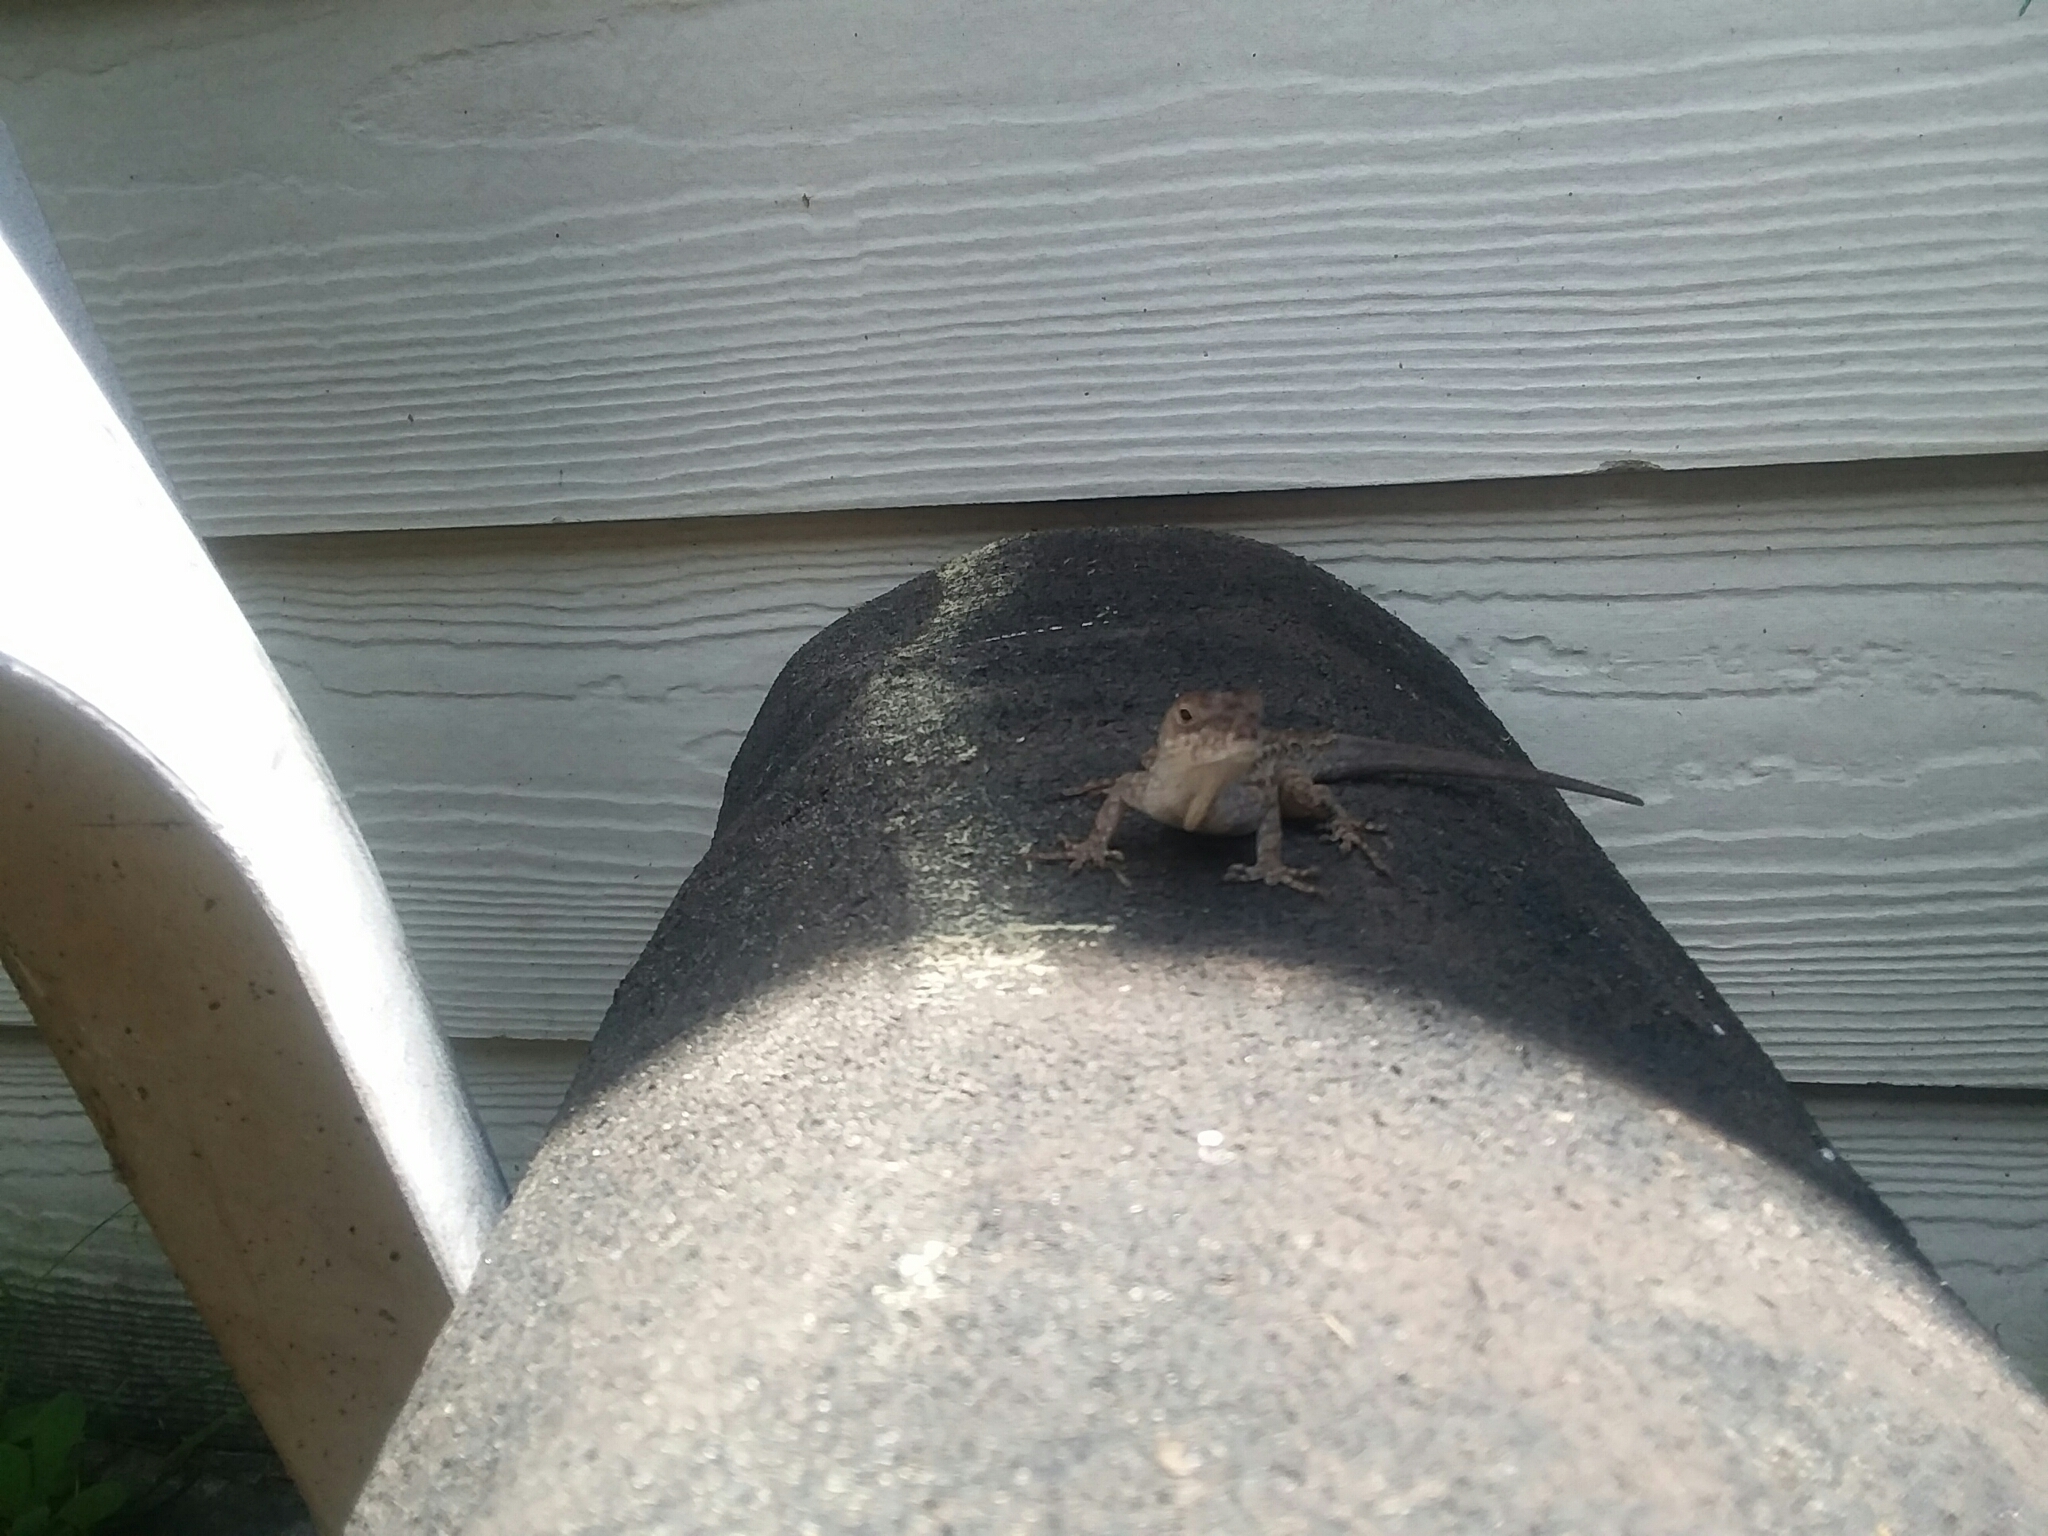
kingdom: Animalia
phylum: Chordata
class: Squamata
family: Dactyloidae
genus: Anolis
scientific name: Anolis sagrei
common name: Brown anole
